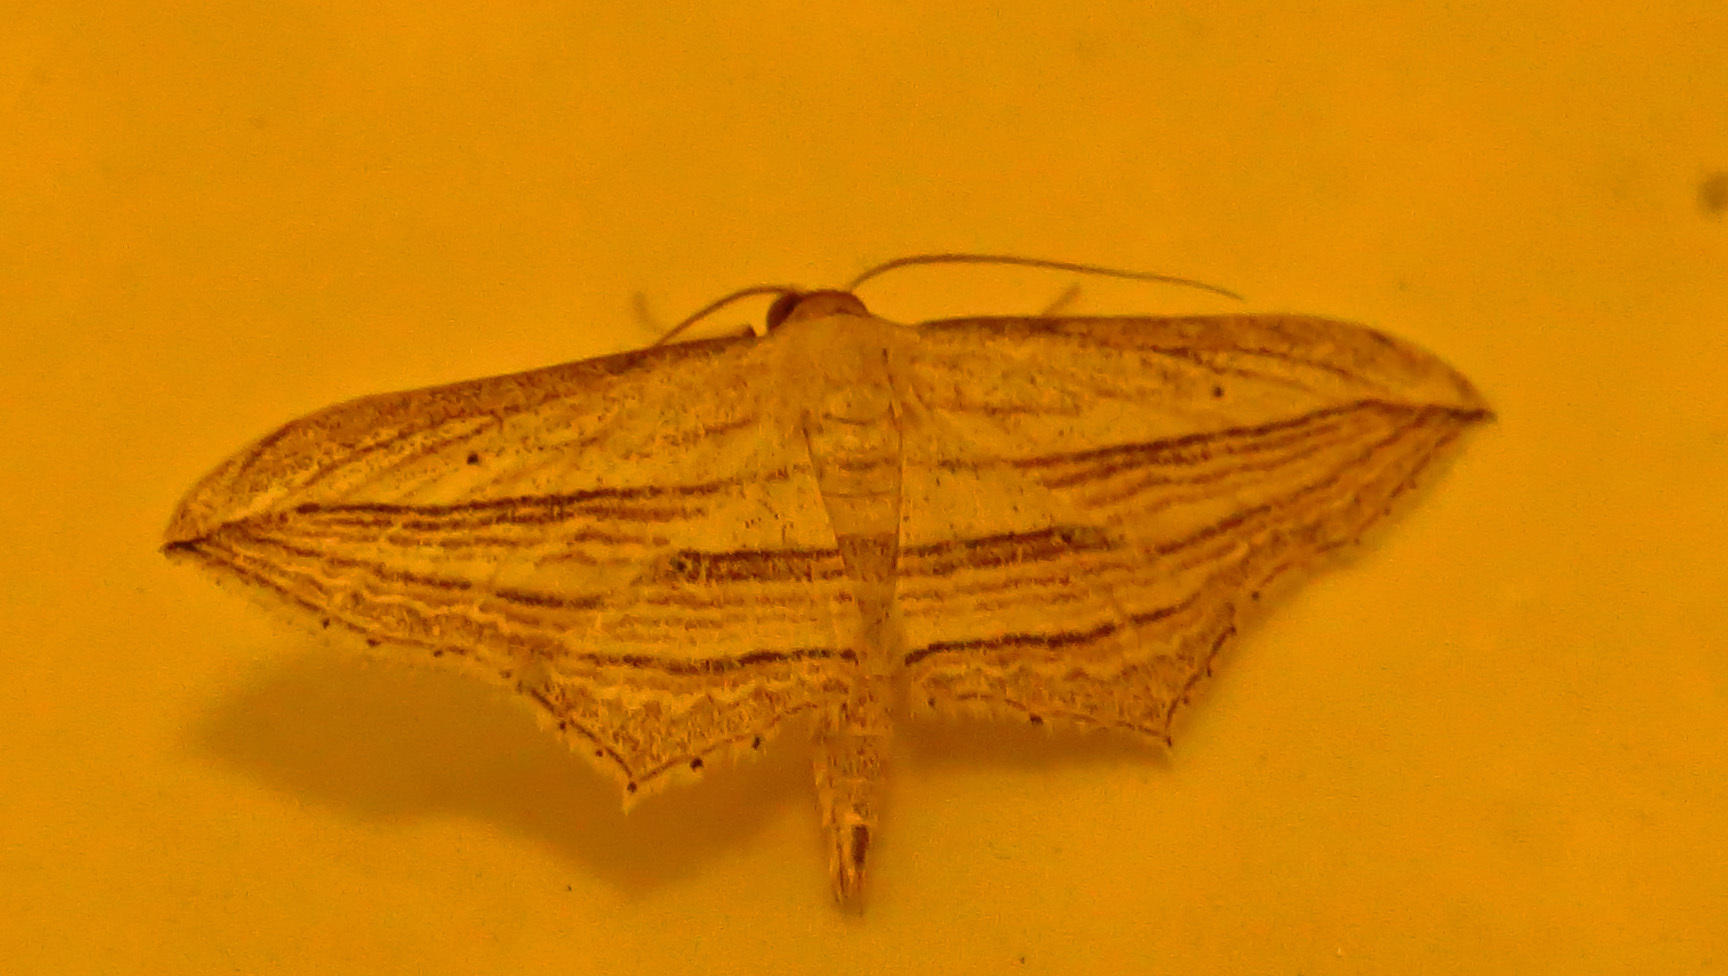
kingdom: Animalia
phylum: Arthropoda
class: Insecta
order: Lepidoptera
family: Geometridae
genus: Arcobara
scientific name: Arcobara multilineata
